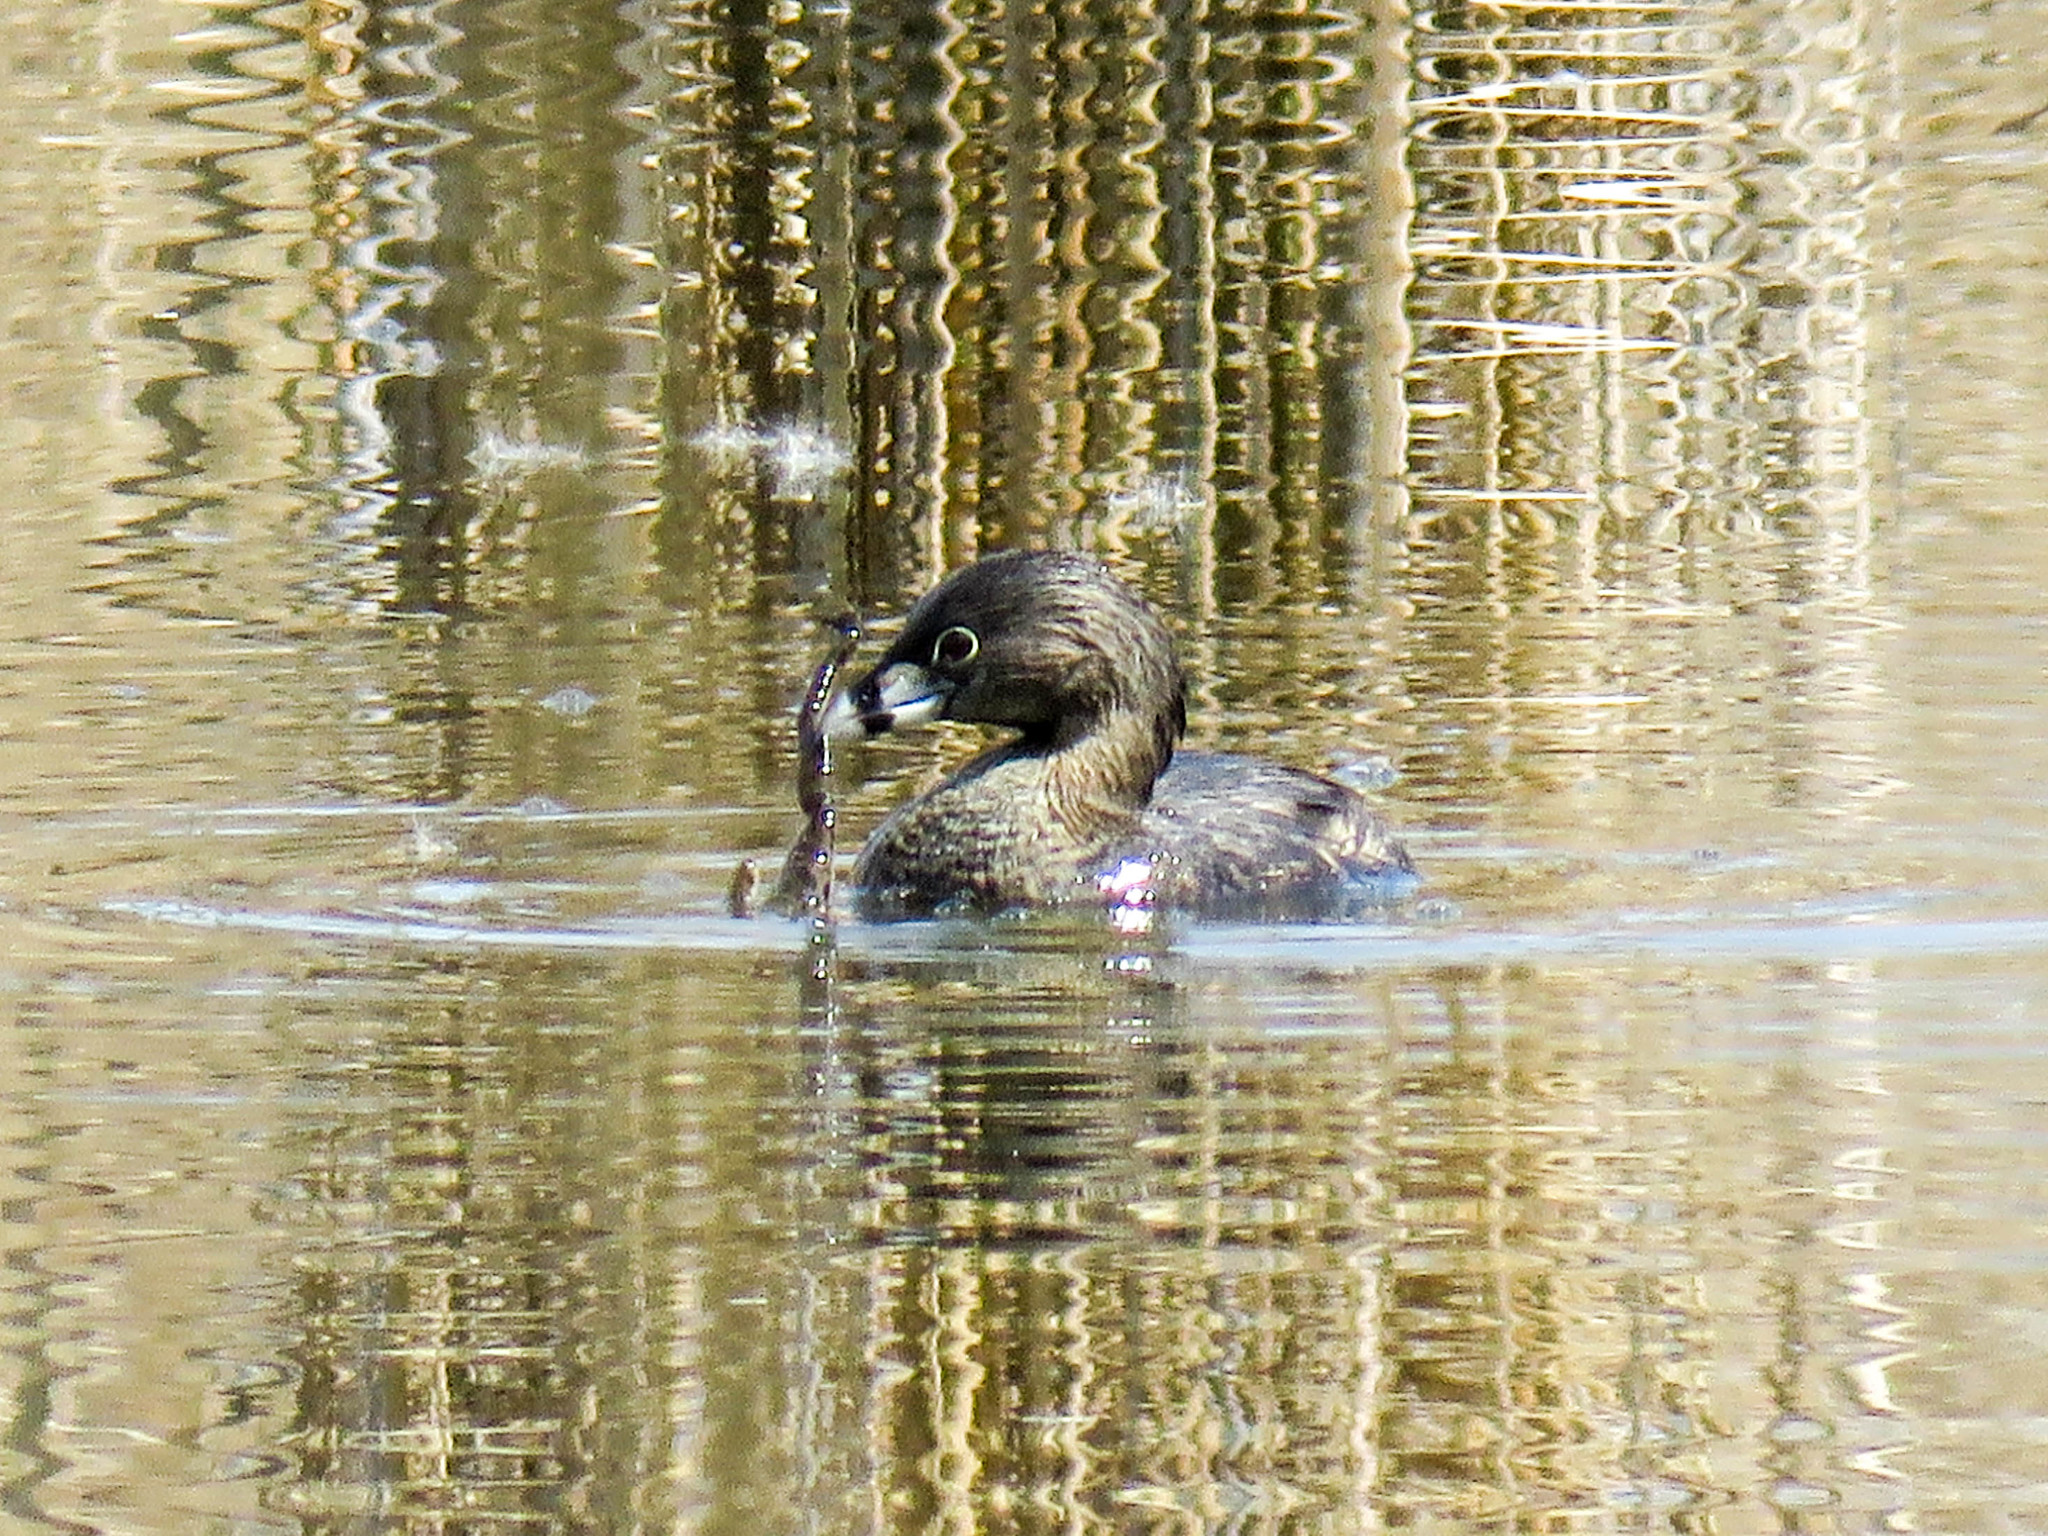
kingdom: Animalia
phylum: Chordata
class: Aves
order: Podicipediformes
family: Podicipedidae
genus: Podilymbus
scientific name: Podilymbus podiceps
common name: Pied-billed grebe
